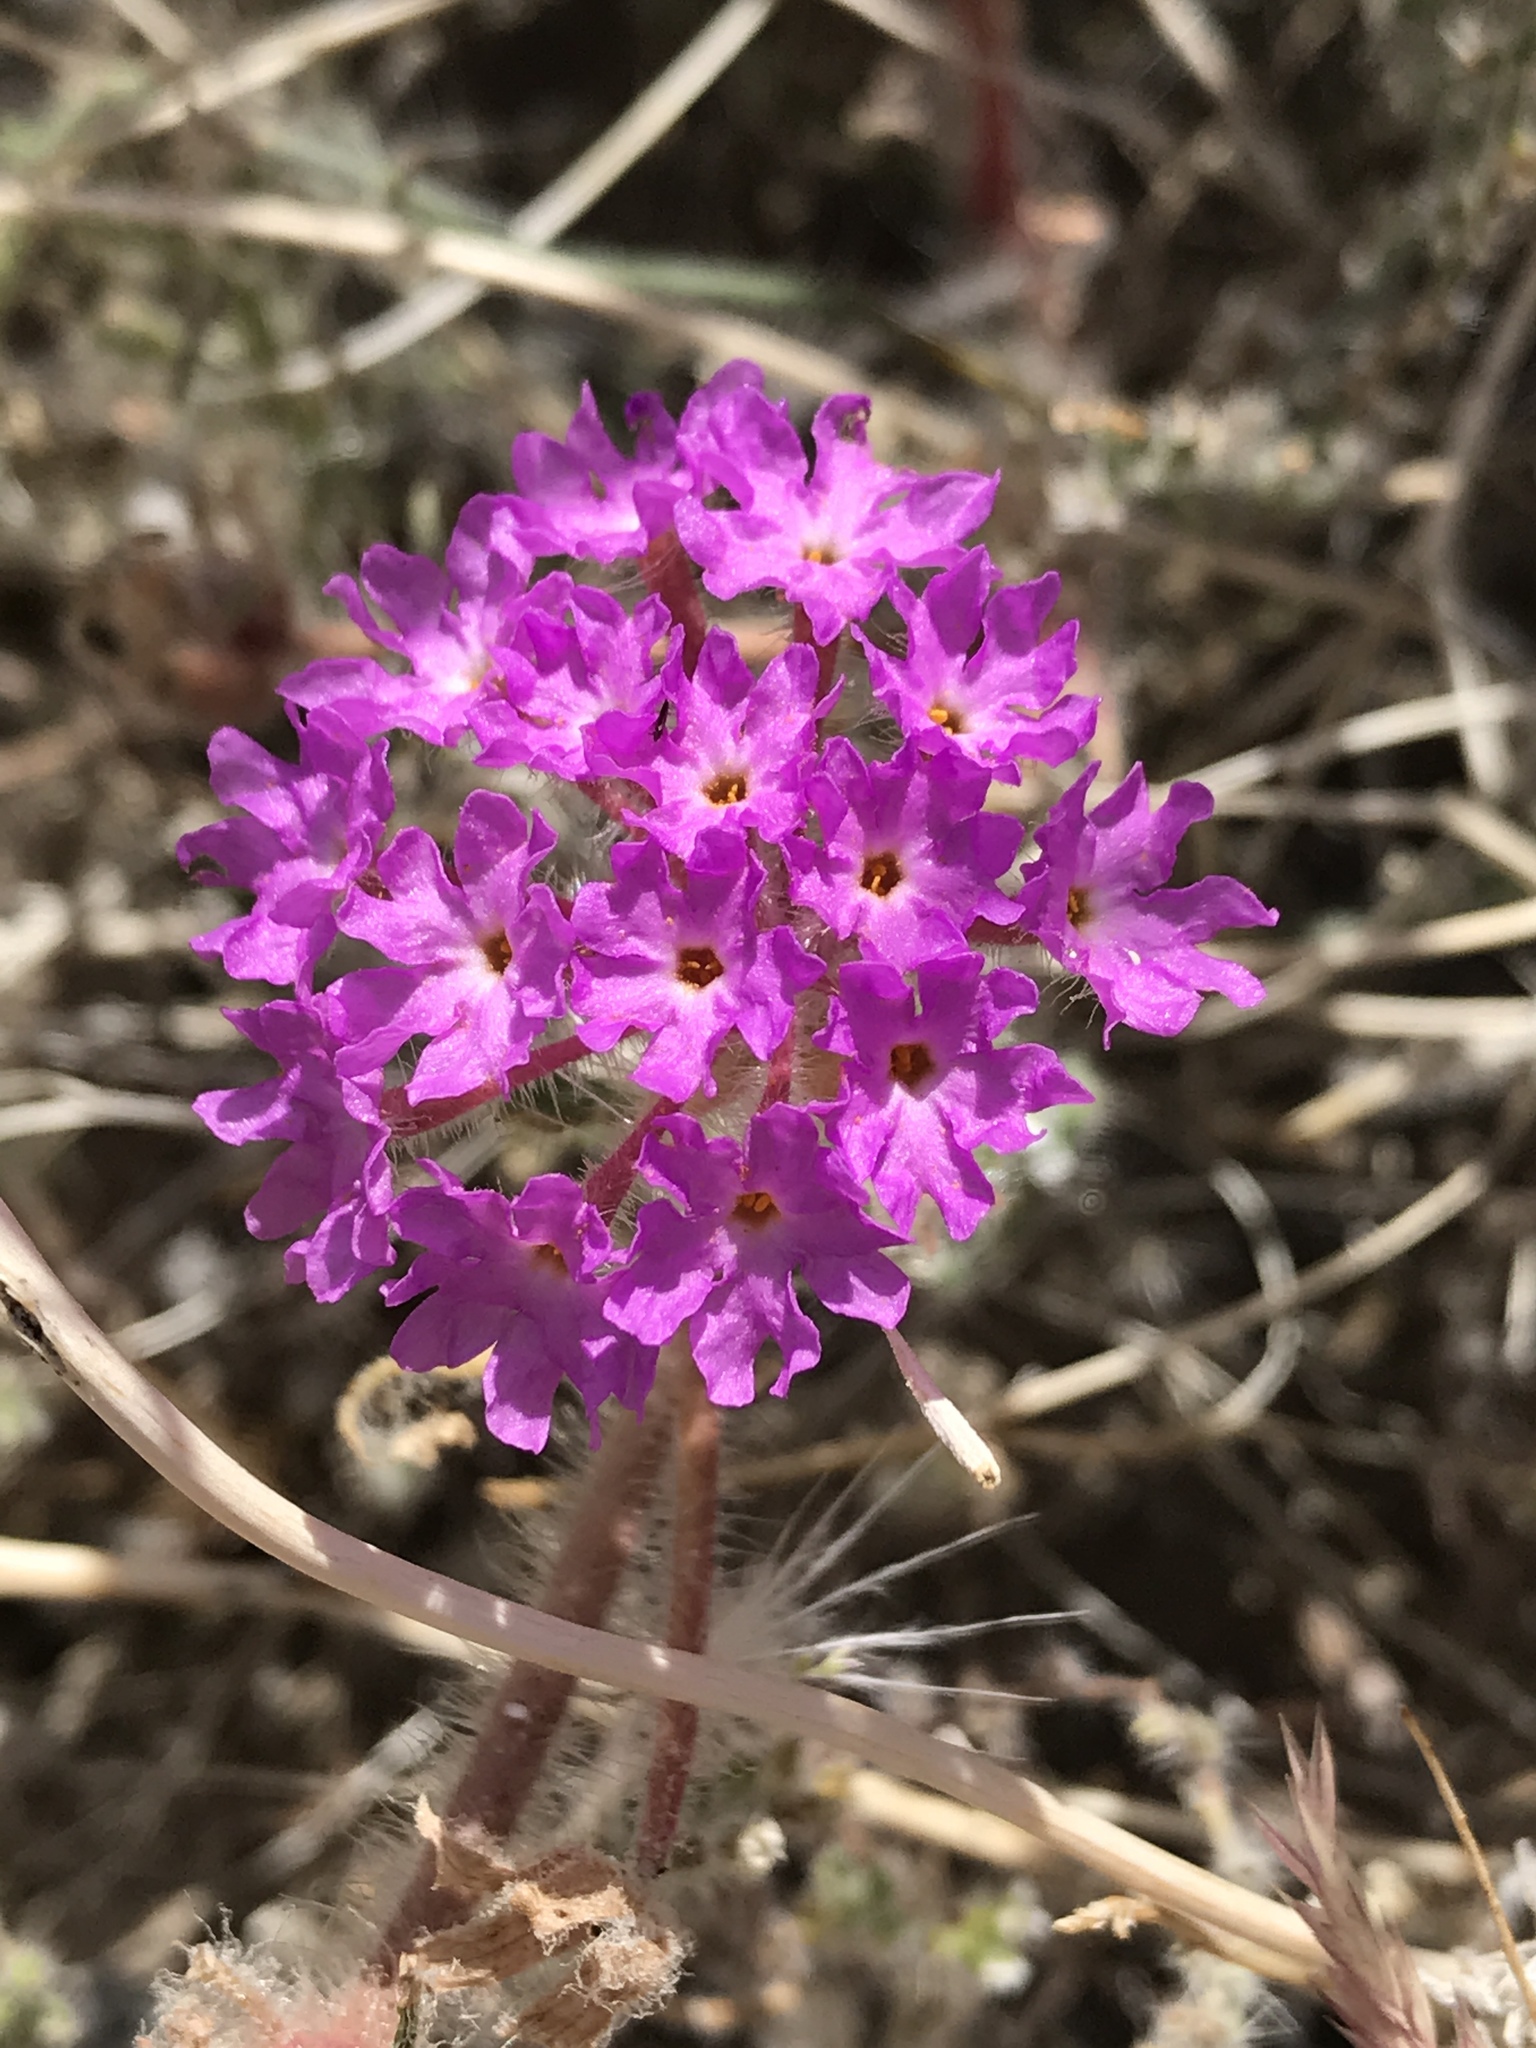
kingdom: Plantae
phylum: Tracheophyta
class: Magnoliopsida
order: Caryophyllales
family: Nyctaginaceae
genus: Abronia
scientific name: Abronia villosa
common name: Desert sand-verbena
